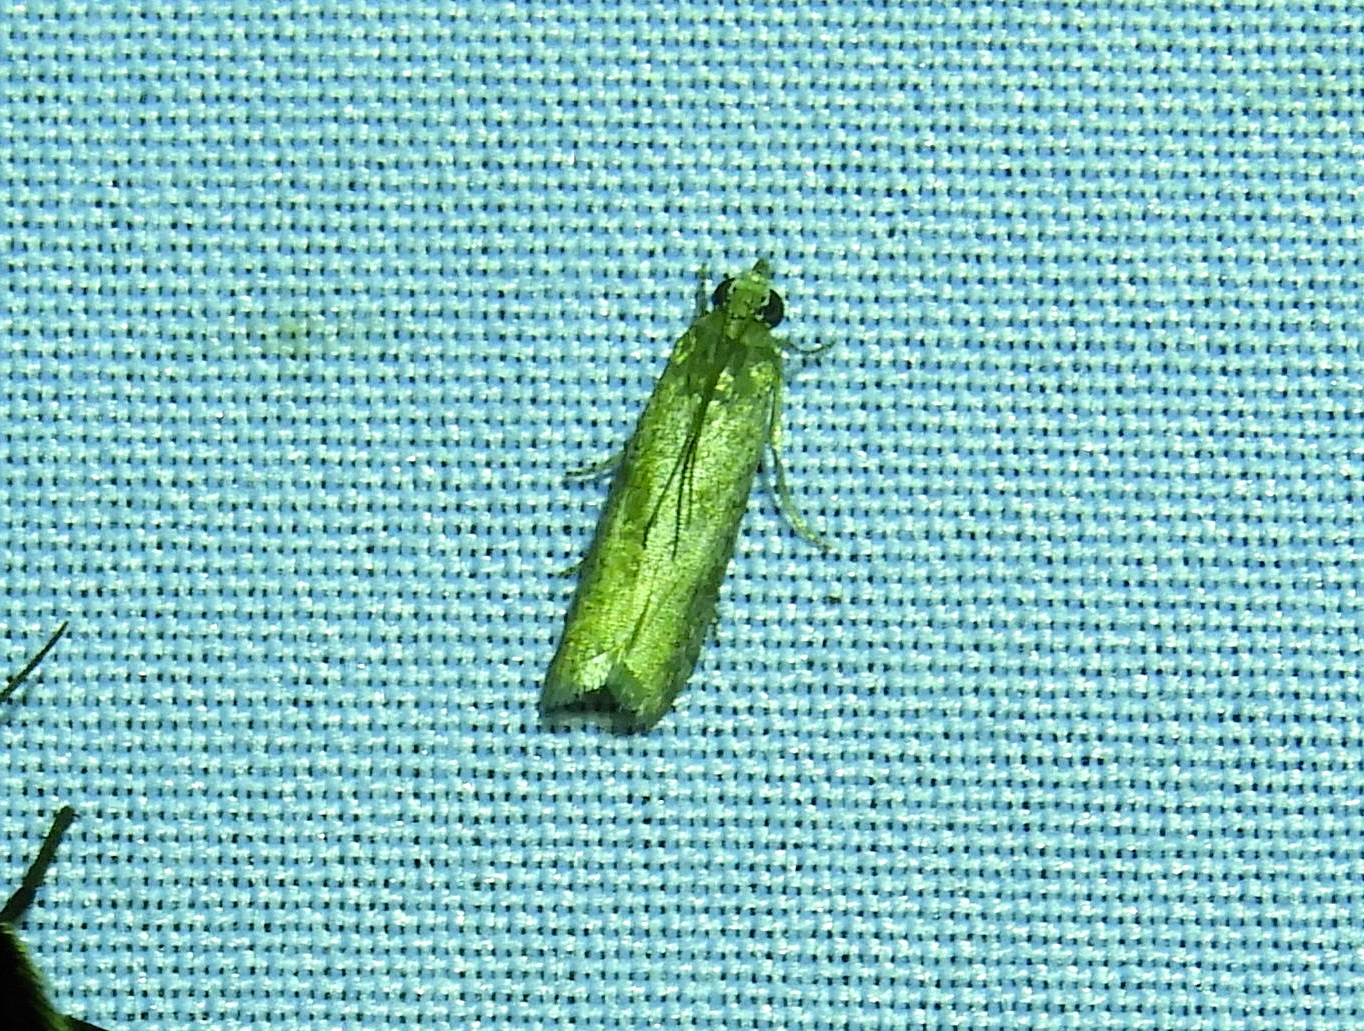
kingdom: Animalia
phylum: Arthropoda
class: Insecta
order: Lepidoptera
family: Pyralidae
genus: Phycitinae
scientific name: Phycitinae
